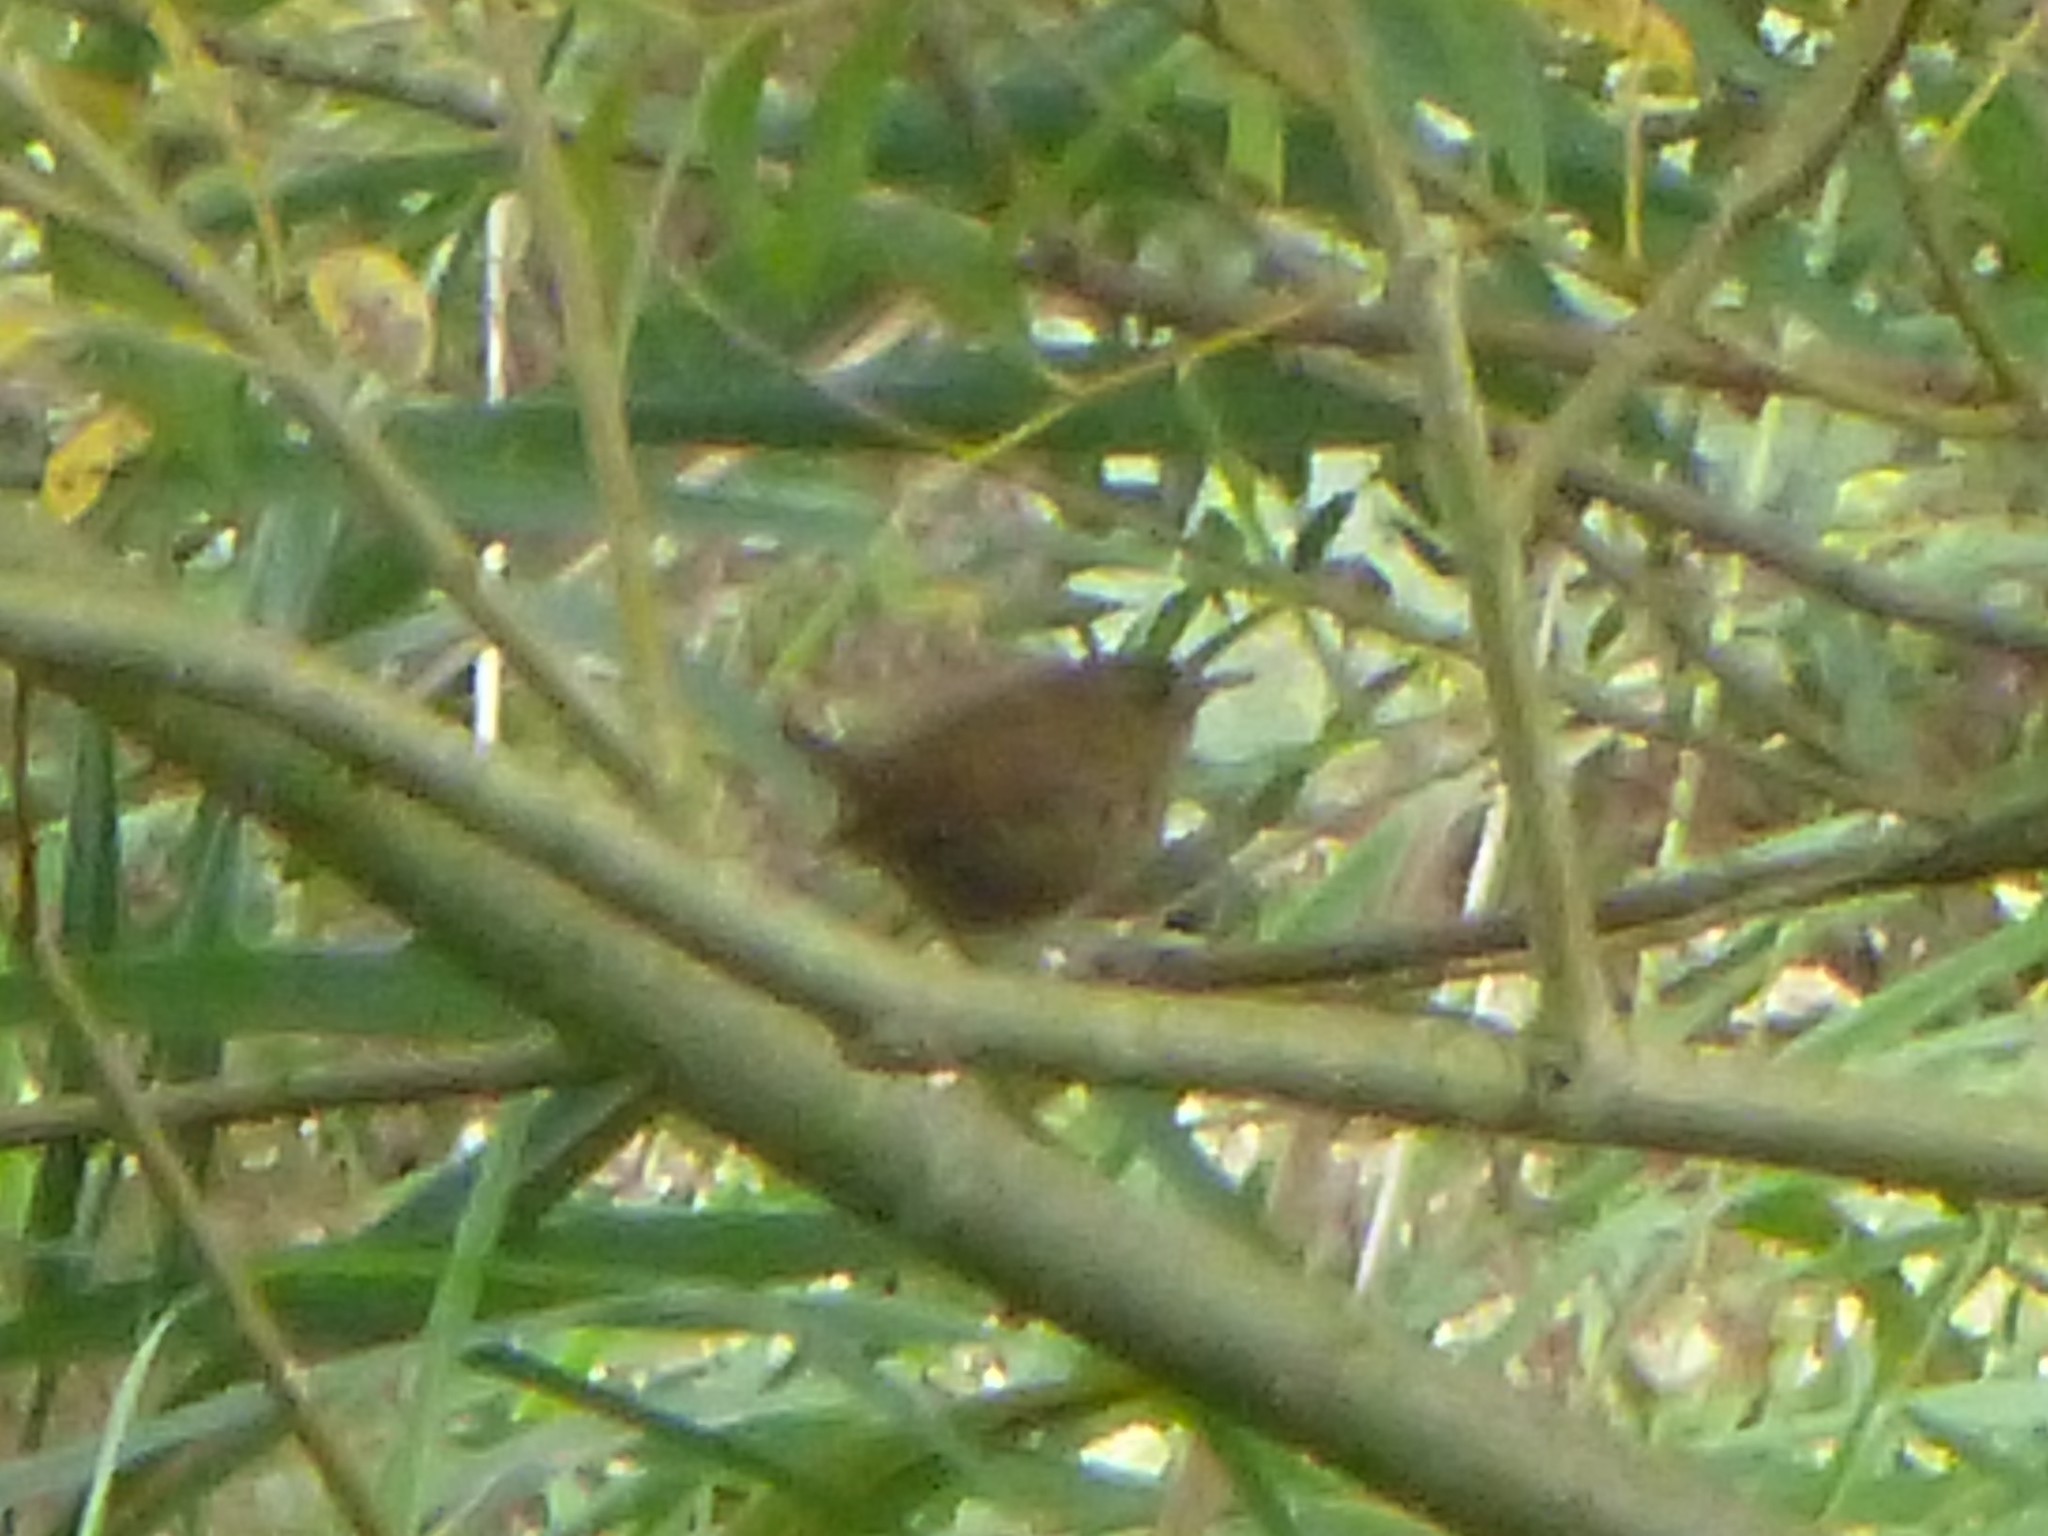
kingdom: Animalia
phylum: Chordata
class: Aves
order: Passeriformes
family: Troglodytidae
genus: Troglodytes
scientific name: Troglodytes troglodytes
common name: Eurasian wren
